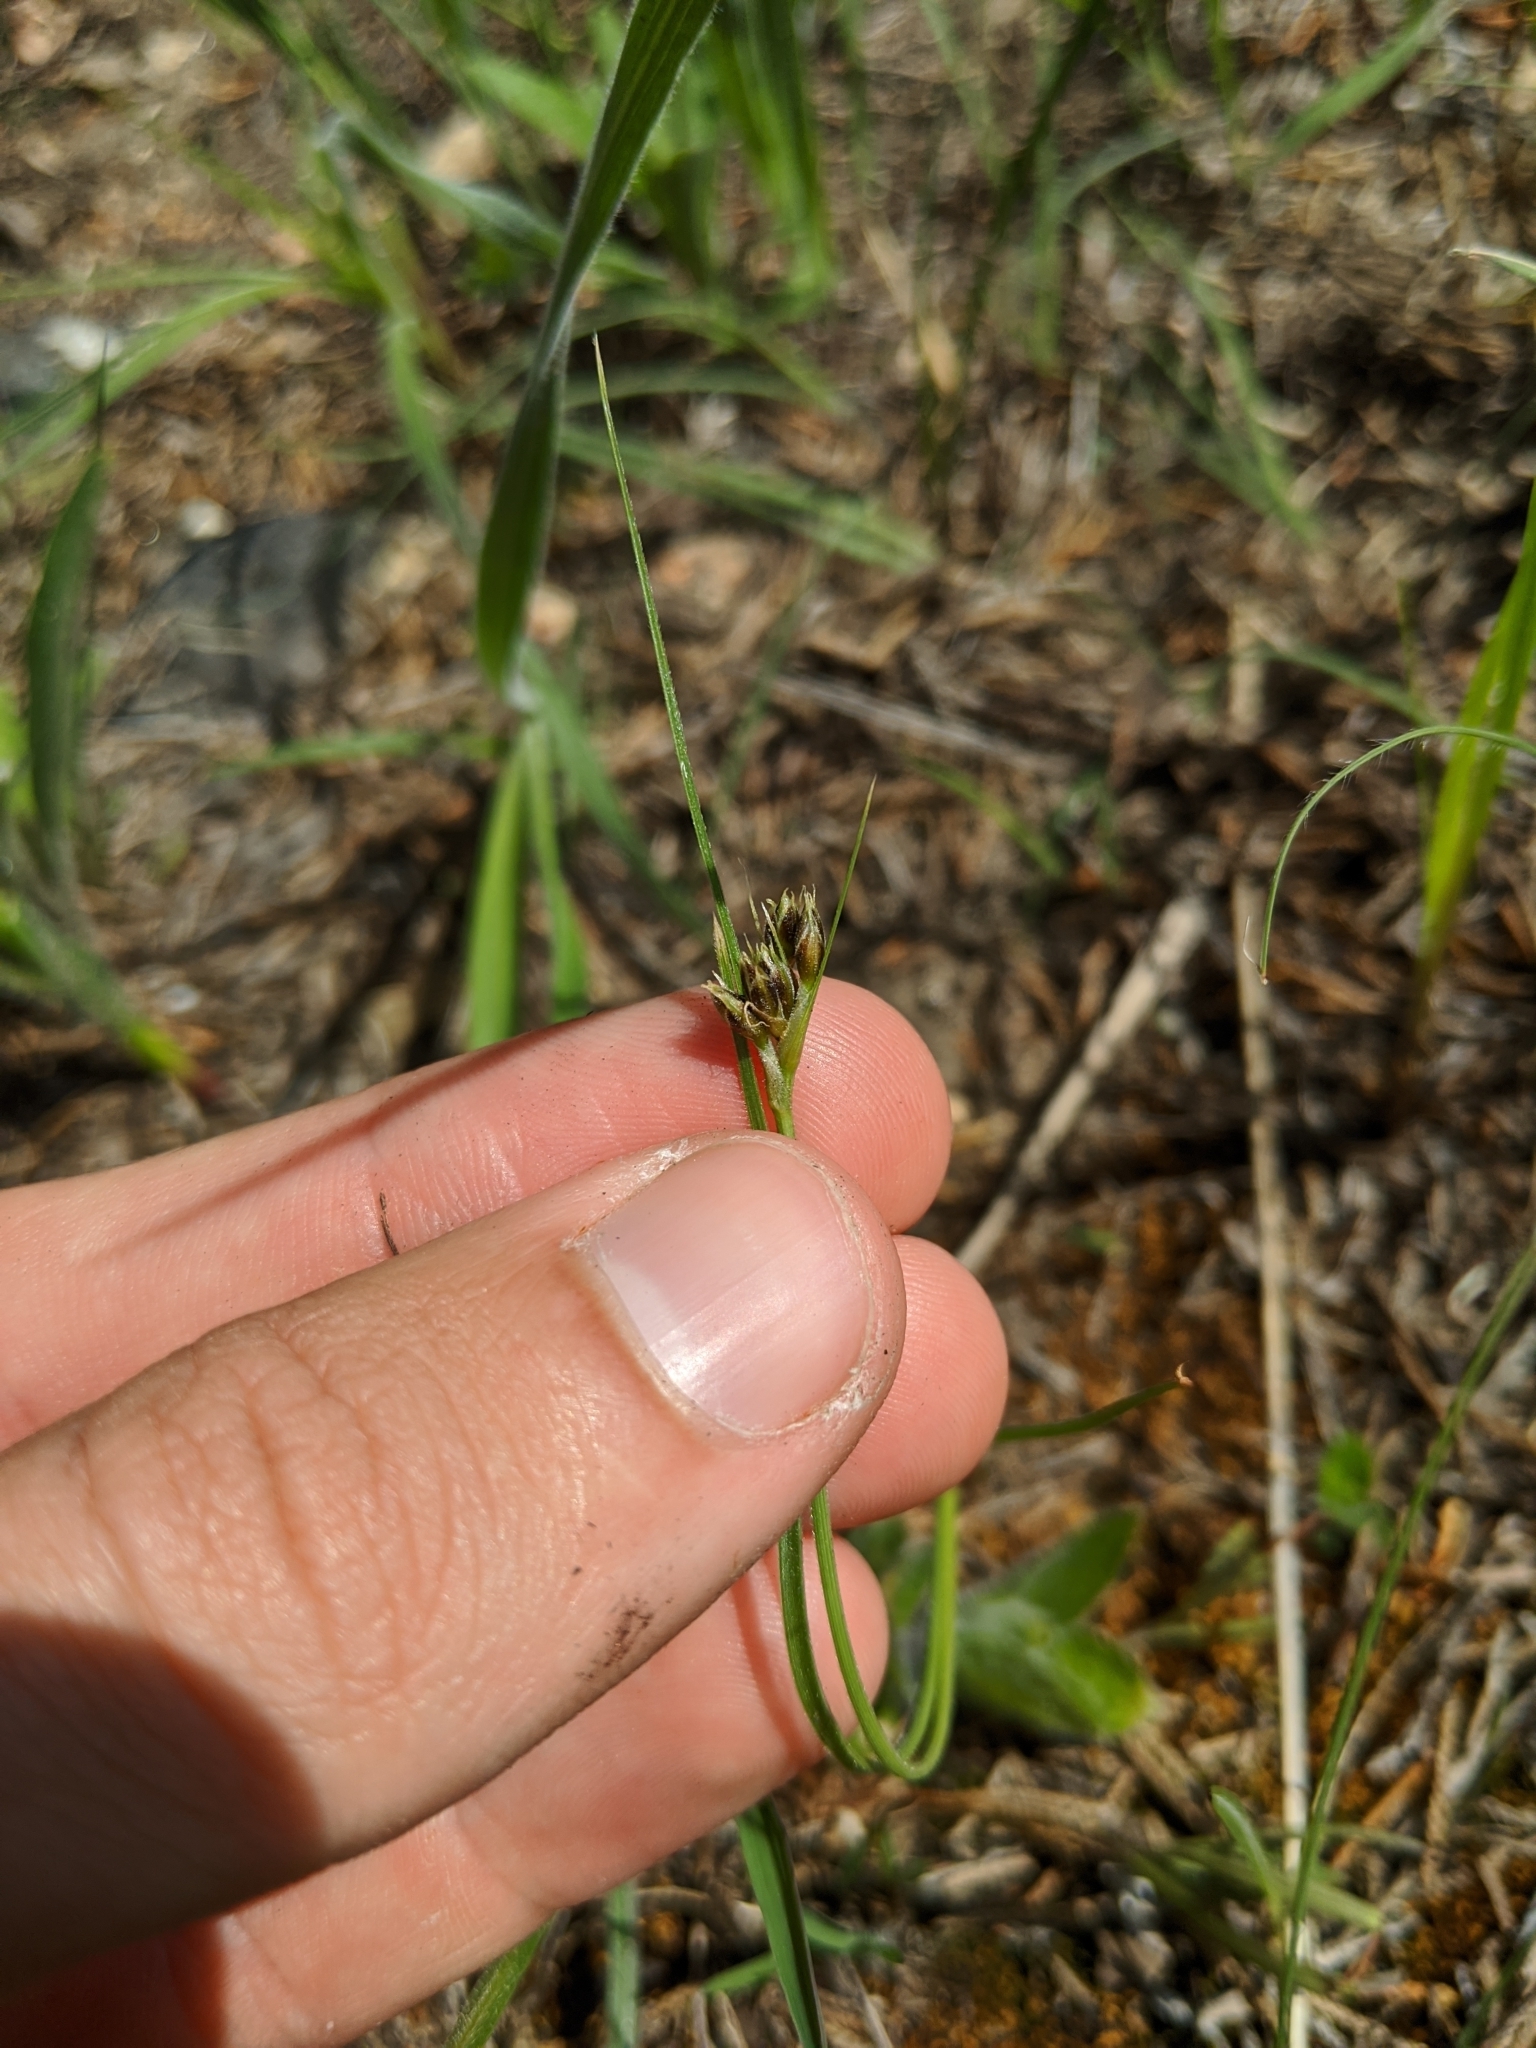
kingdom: Plantae
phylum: Tracheophyta
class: Liliopsida
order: Poales
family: Cyperaceae
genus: Fimbristylis
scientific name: Fimbristylis puberula
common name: Hairy fimbristylis
